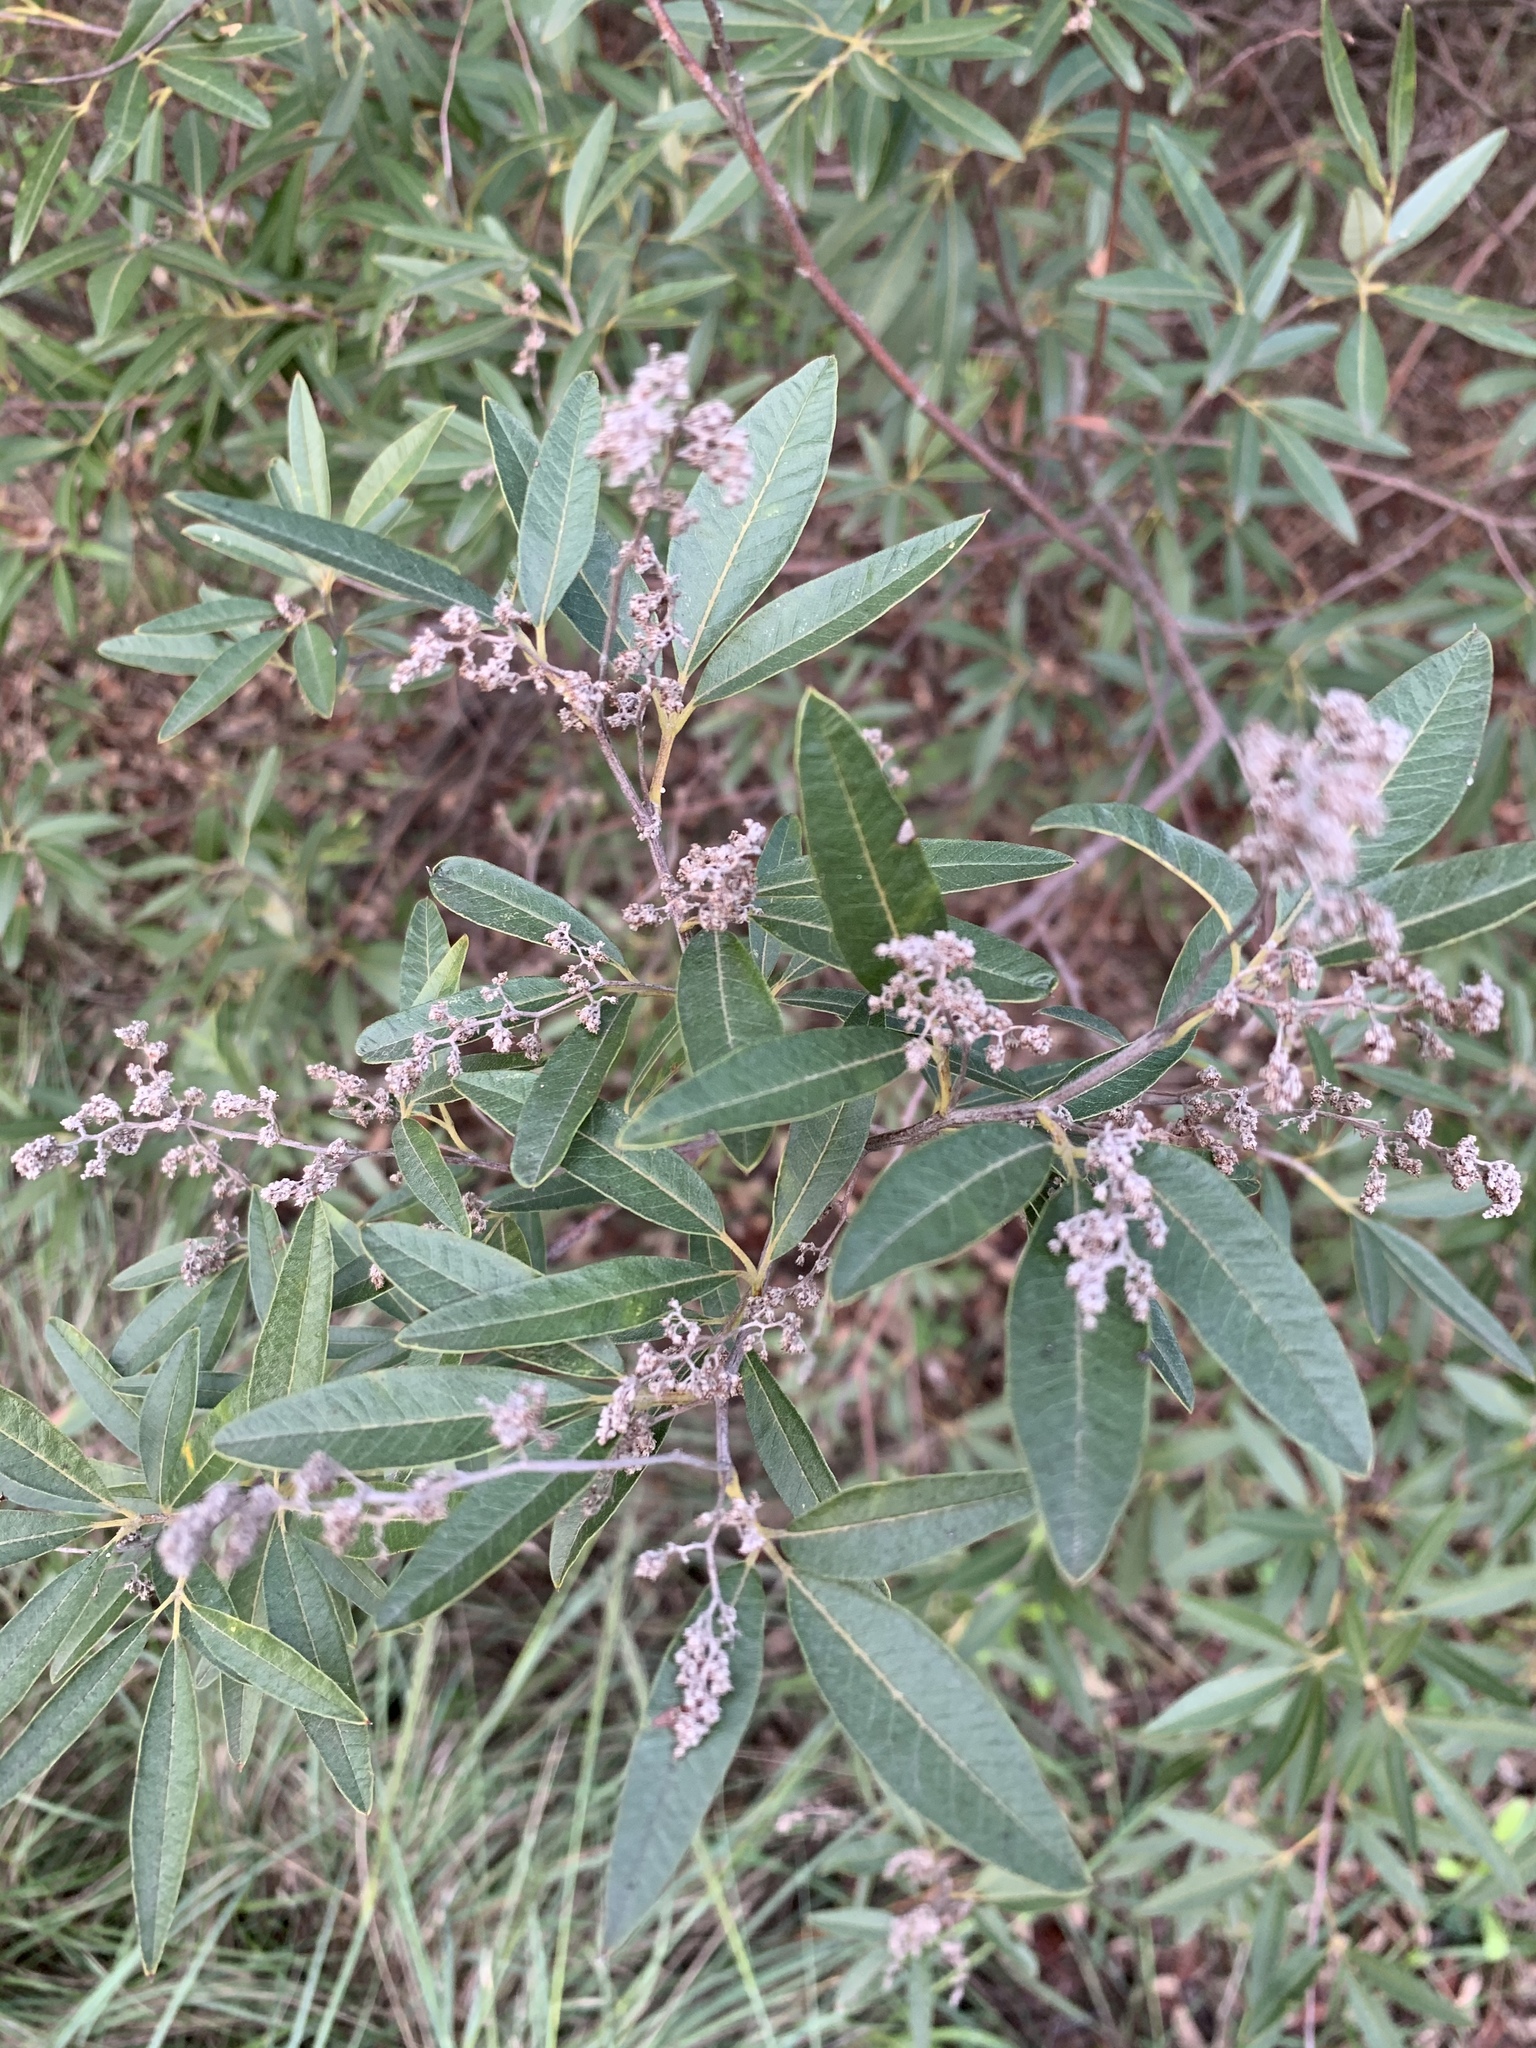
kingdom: Plantae
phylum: Tracheophyta
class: Magnoliopsida
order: Sapindales
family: Anacardiaceae
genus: Searsia
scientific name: Searsia angustifolia
